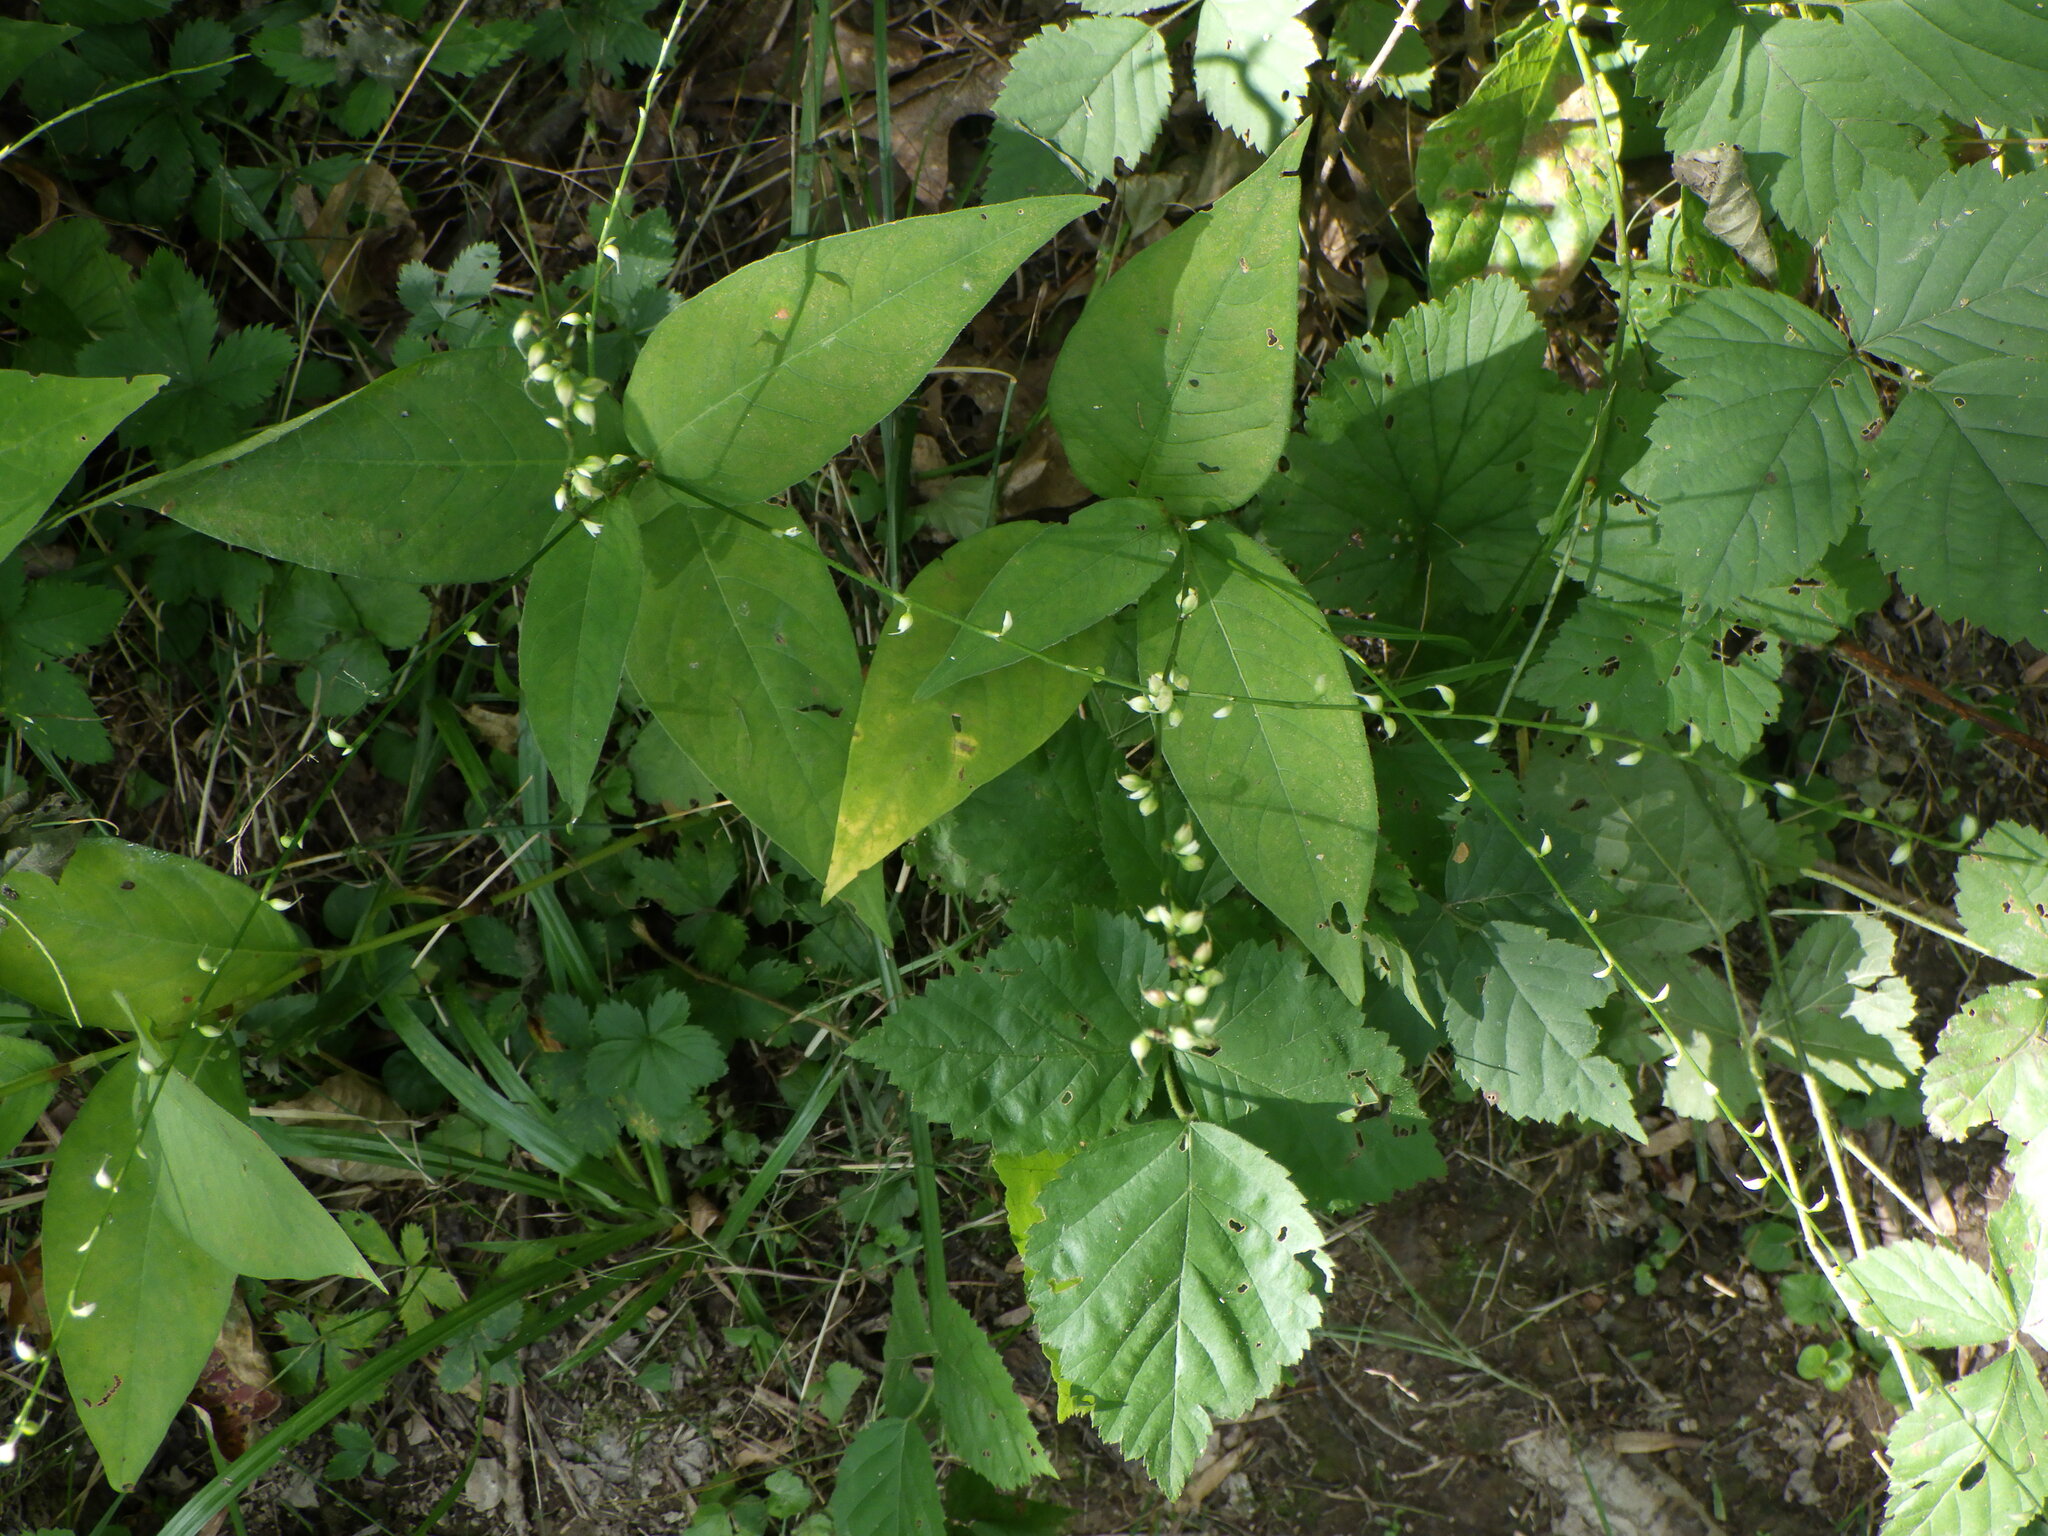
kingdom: Plantae
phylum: Tracheophyta
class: Magnoliopsida
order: Caryophyllales
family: Polygonaceae
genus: Persicaria
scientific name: Persicaria virginiana
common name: Jumpseed
